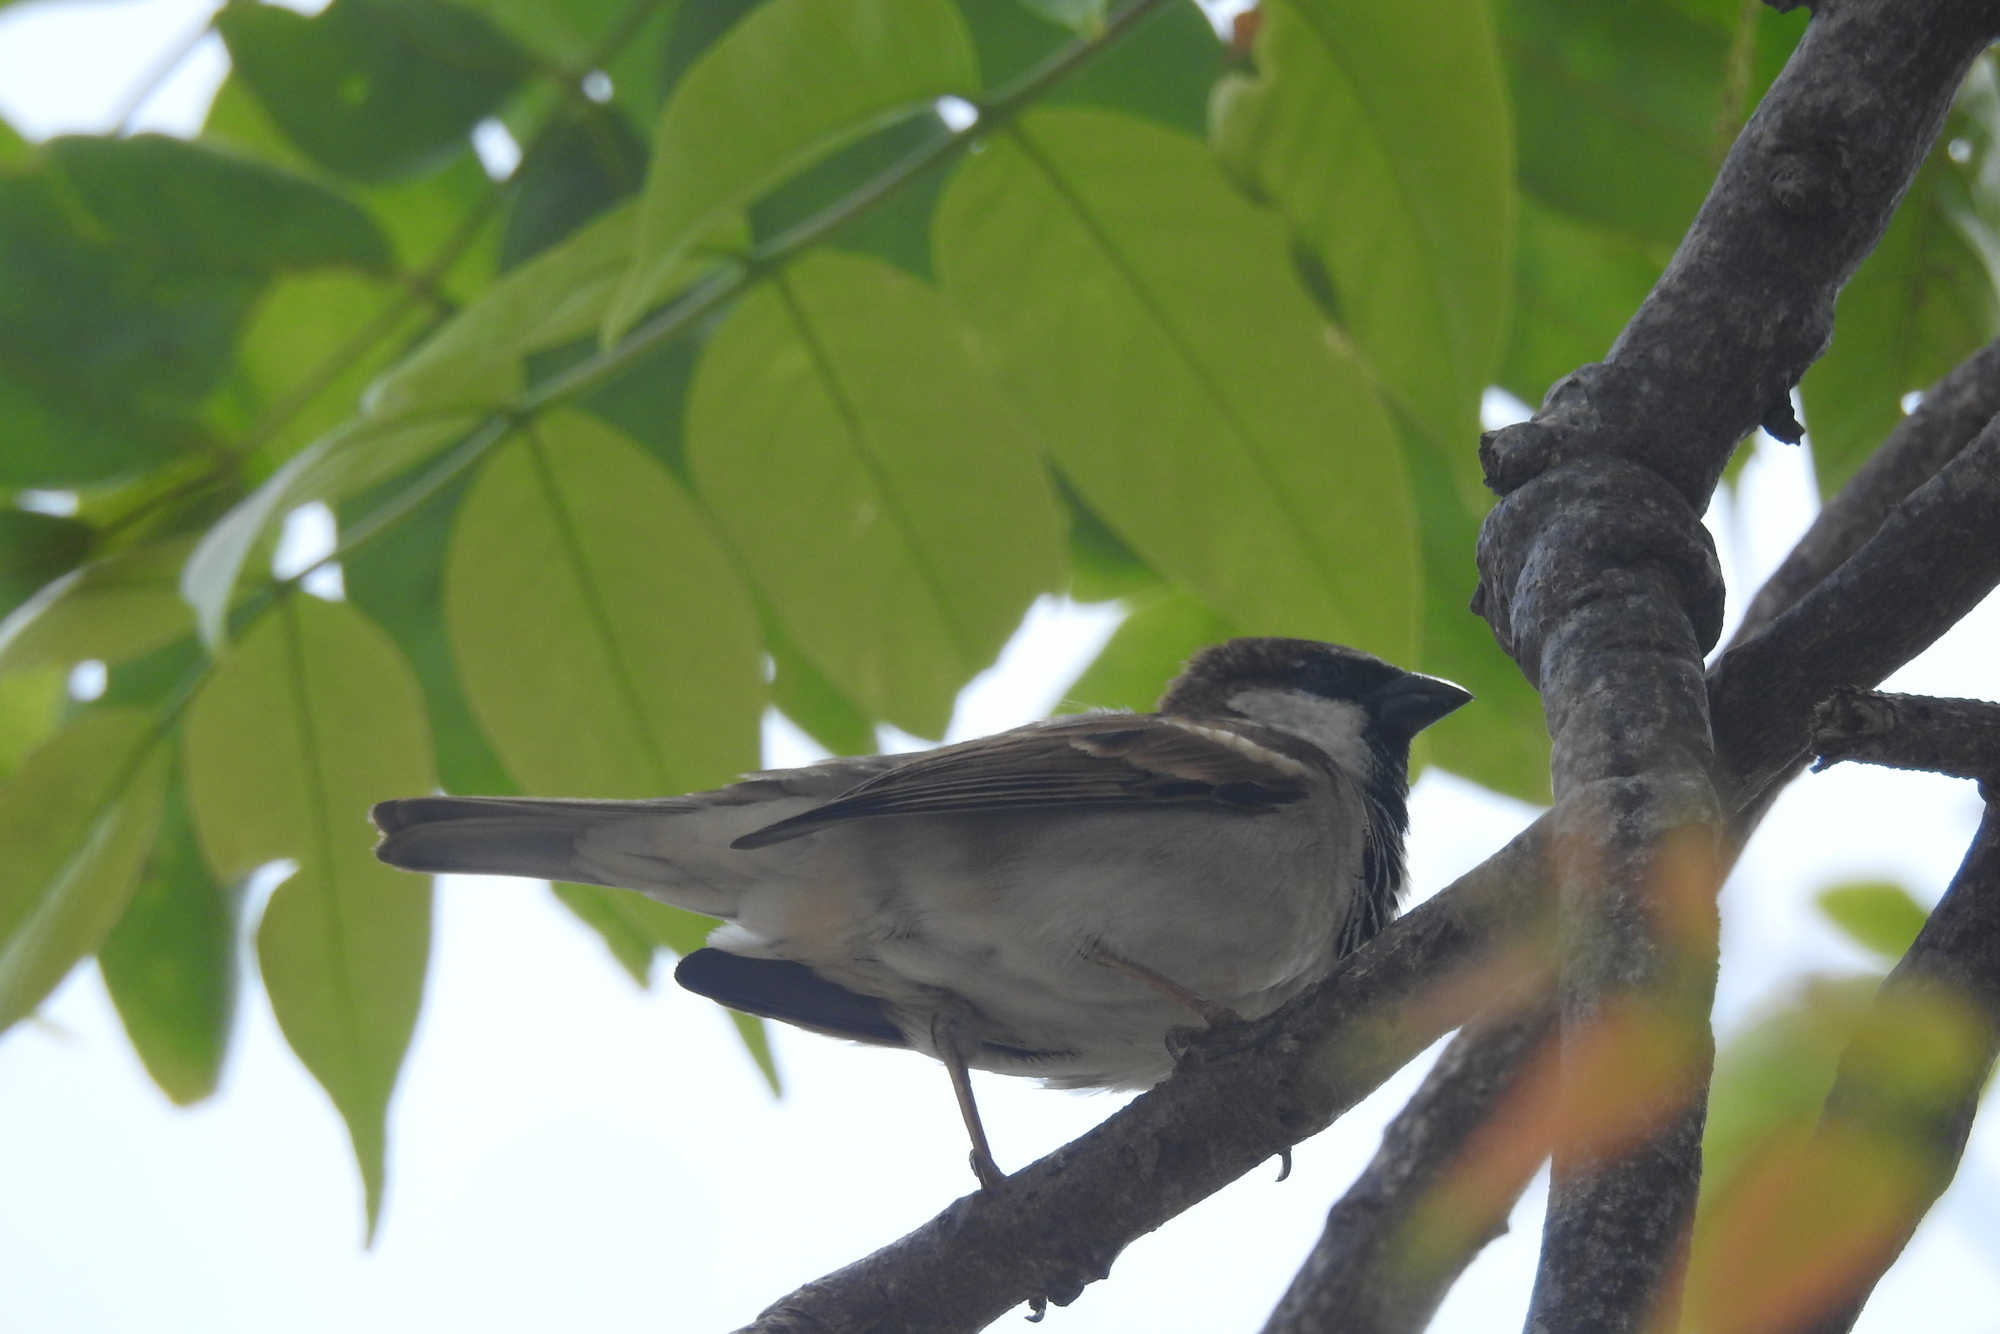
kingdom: Animalia
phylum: Chordata
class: Aves
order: Passeriformes
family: Passeridae
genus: Passer
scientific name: Passer domesticus
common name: House sparrow
